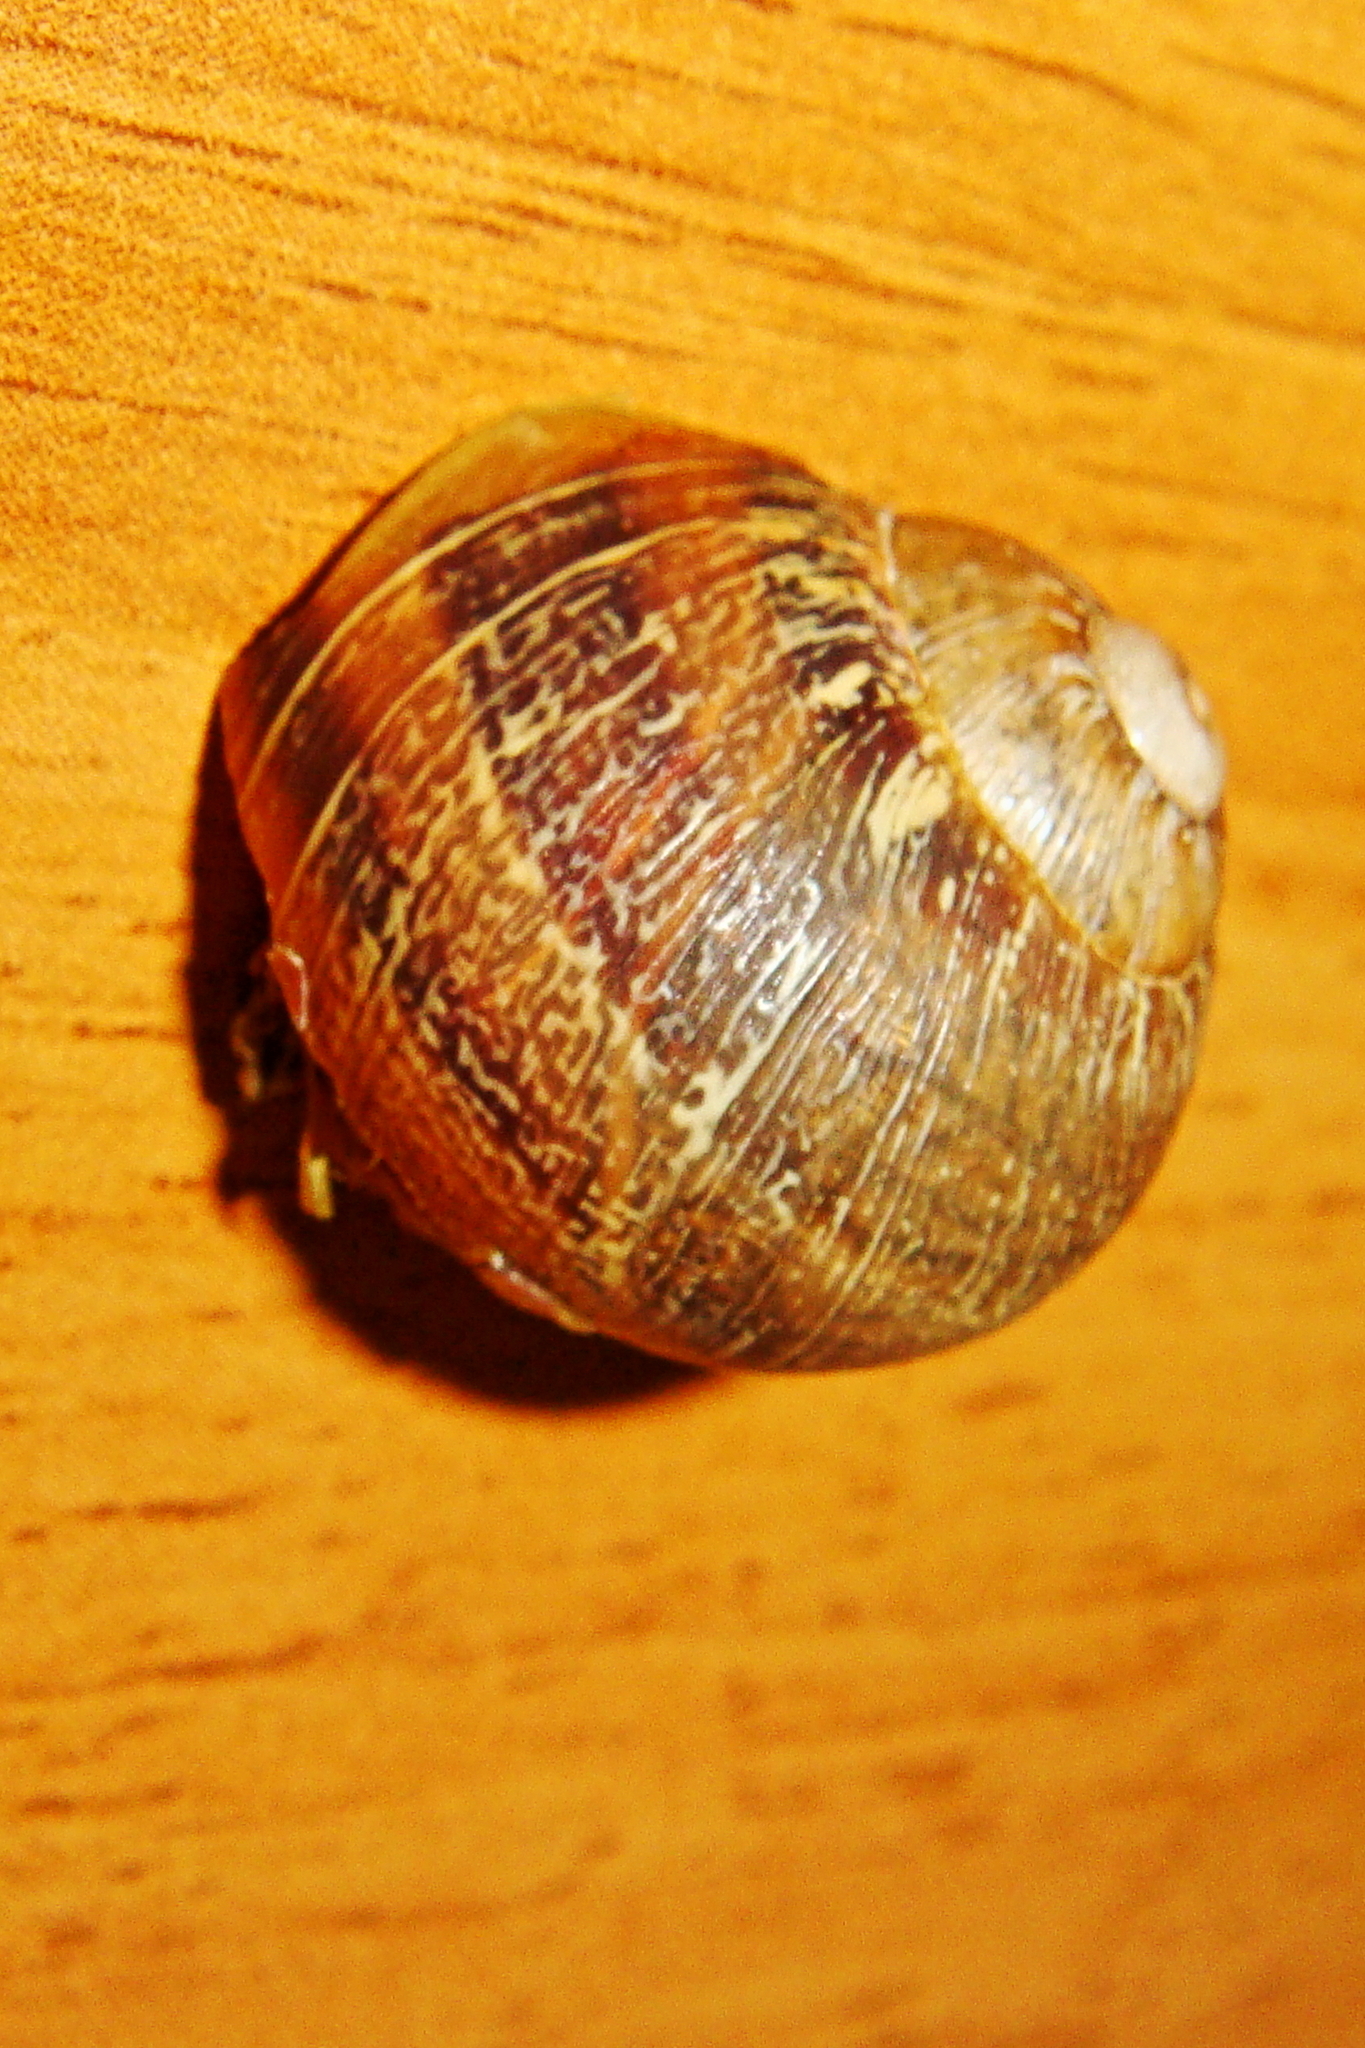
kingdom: Animalia
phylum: Mollusca
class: Gastropoda
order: Stylommatophora
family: Helicidae
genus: Cornu
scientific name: Cornu aspersum
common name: Brown garden snail
